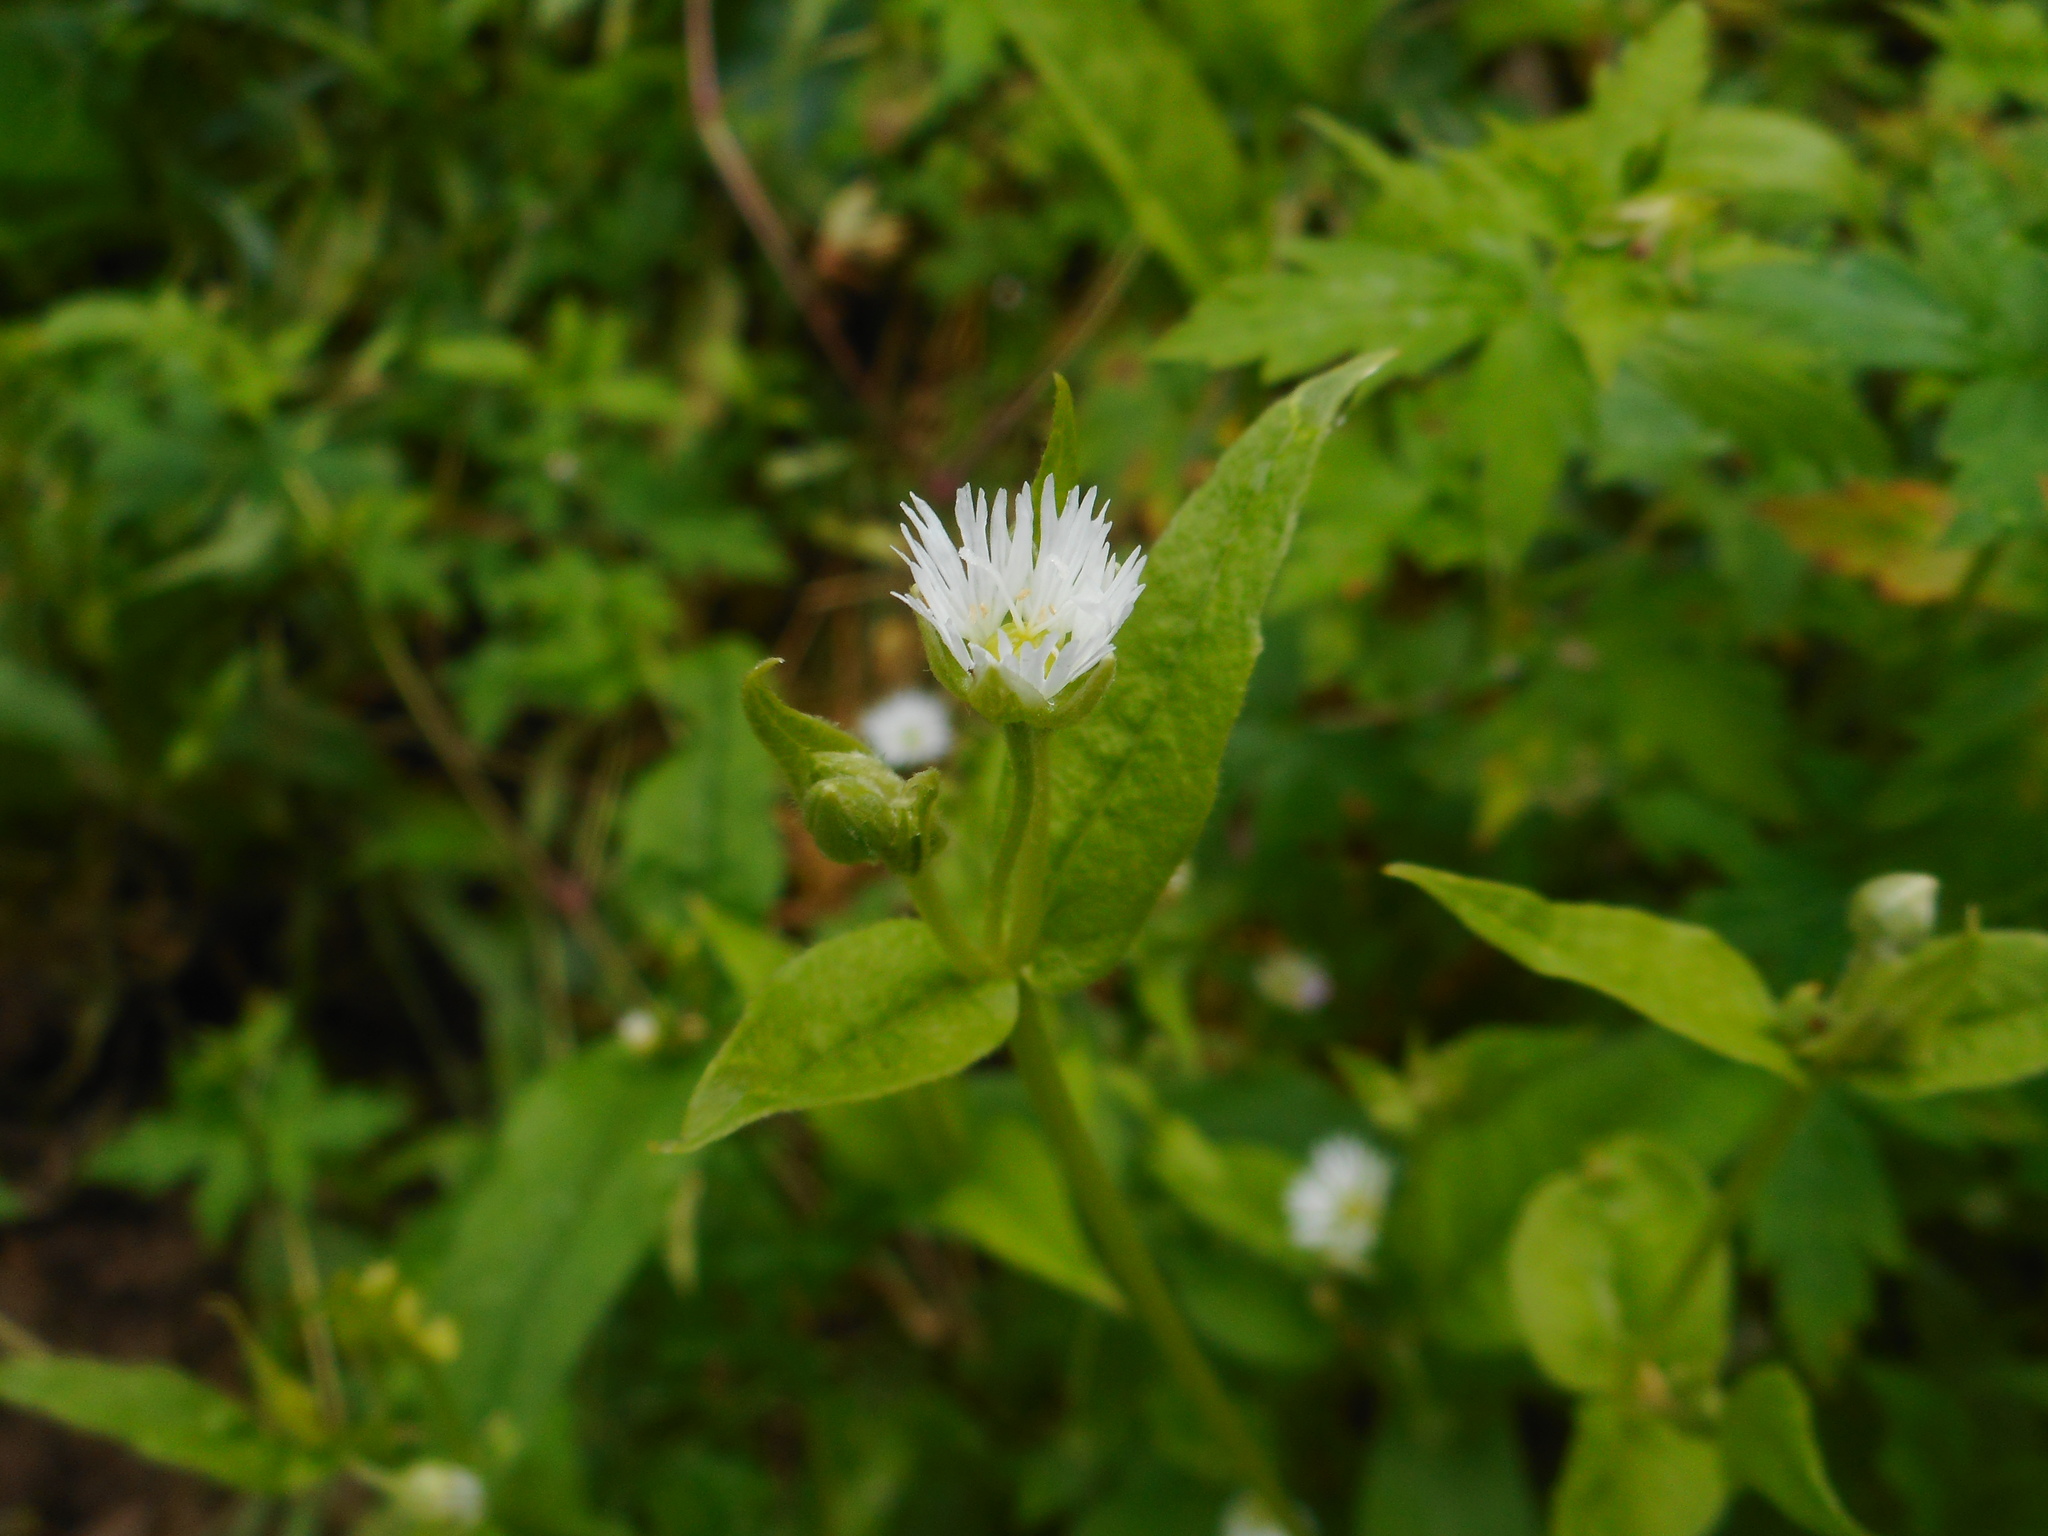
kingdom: Plantae
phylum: Tracheophyta
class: Magnoliopsida
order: Caryophyllales
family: Caryophyllaceae
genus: Stellaria
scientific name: Stellaria radians
